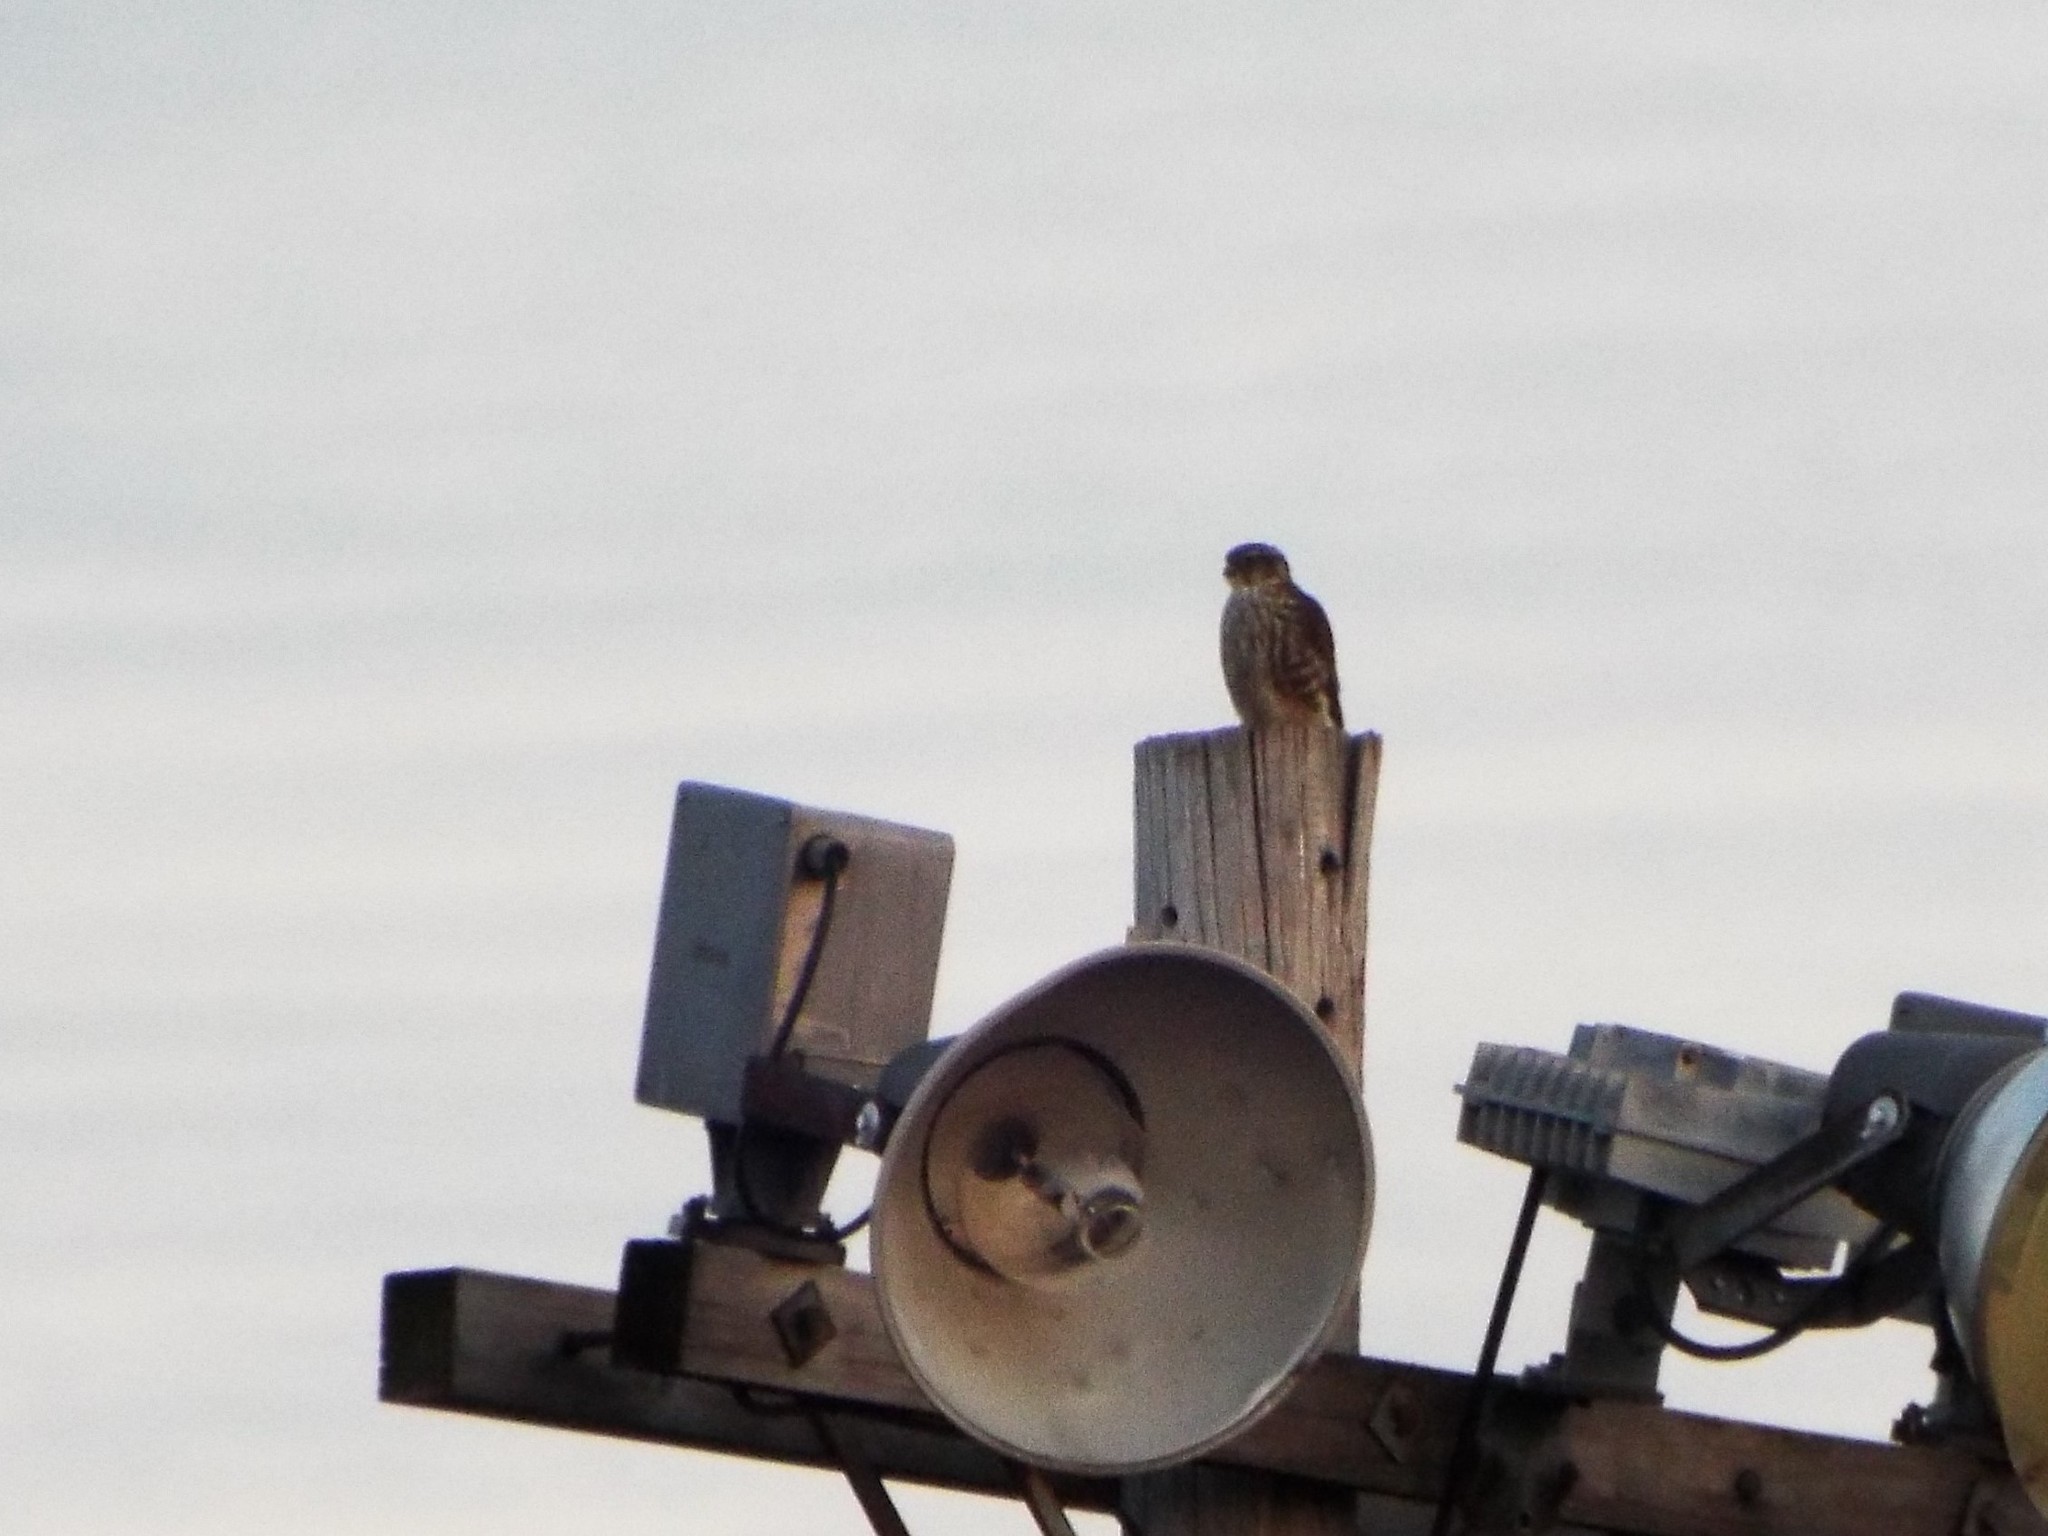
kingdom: Animalia
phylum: Chordata
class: Aves
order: Falconiformes
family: Falconidae
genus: Falco
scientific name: Falco columbarius
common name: Merlin
